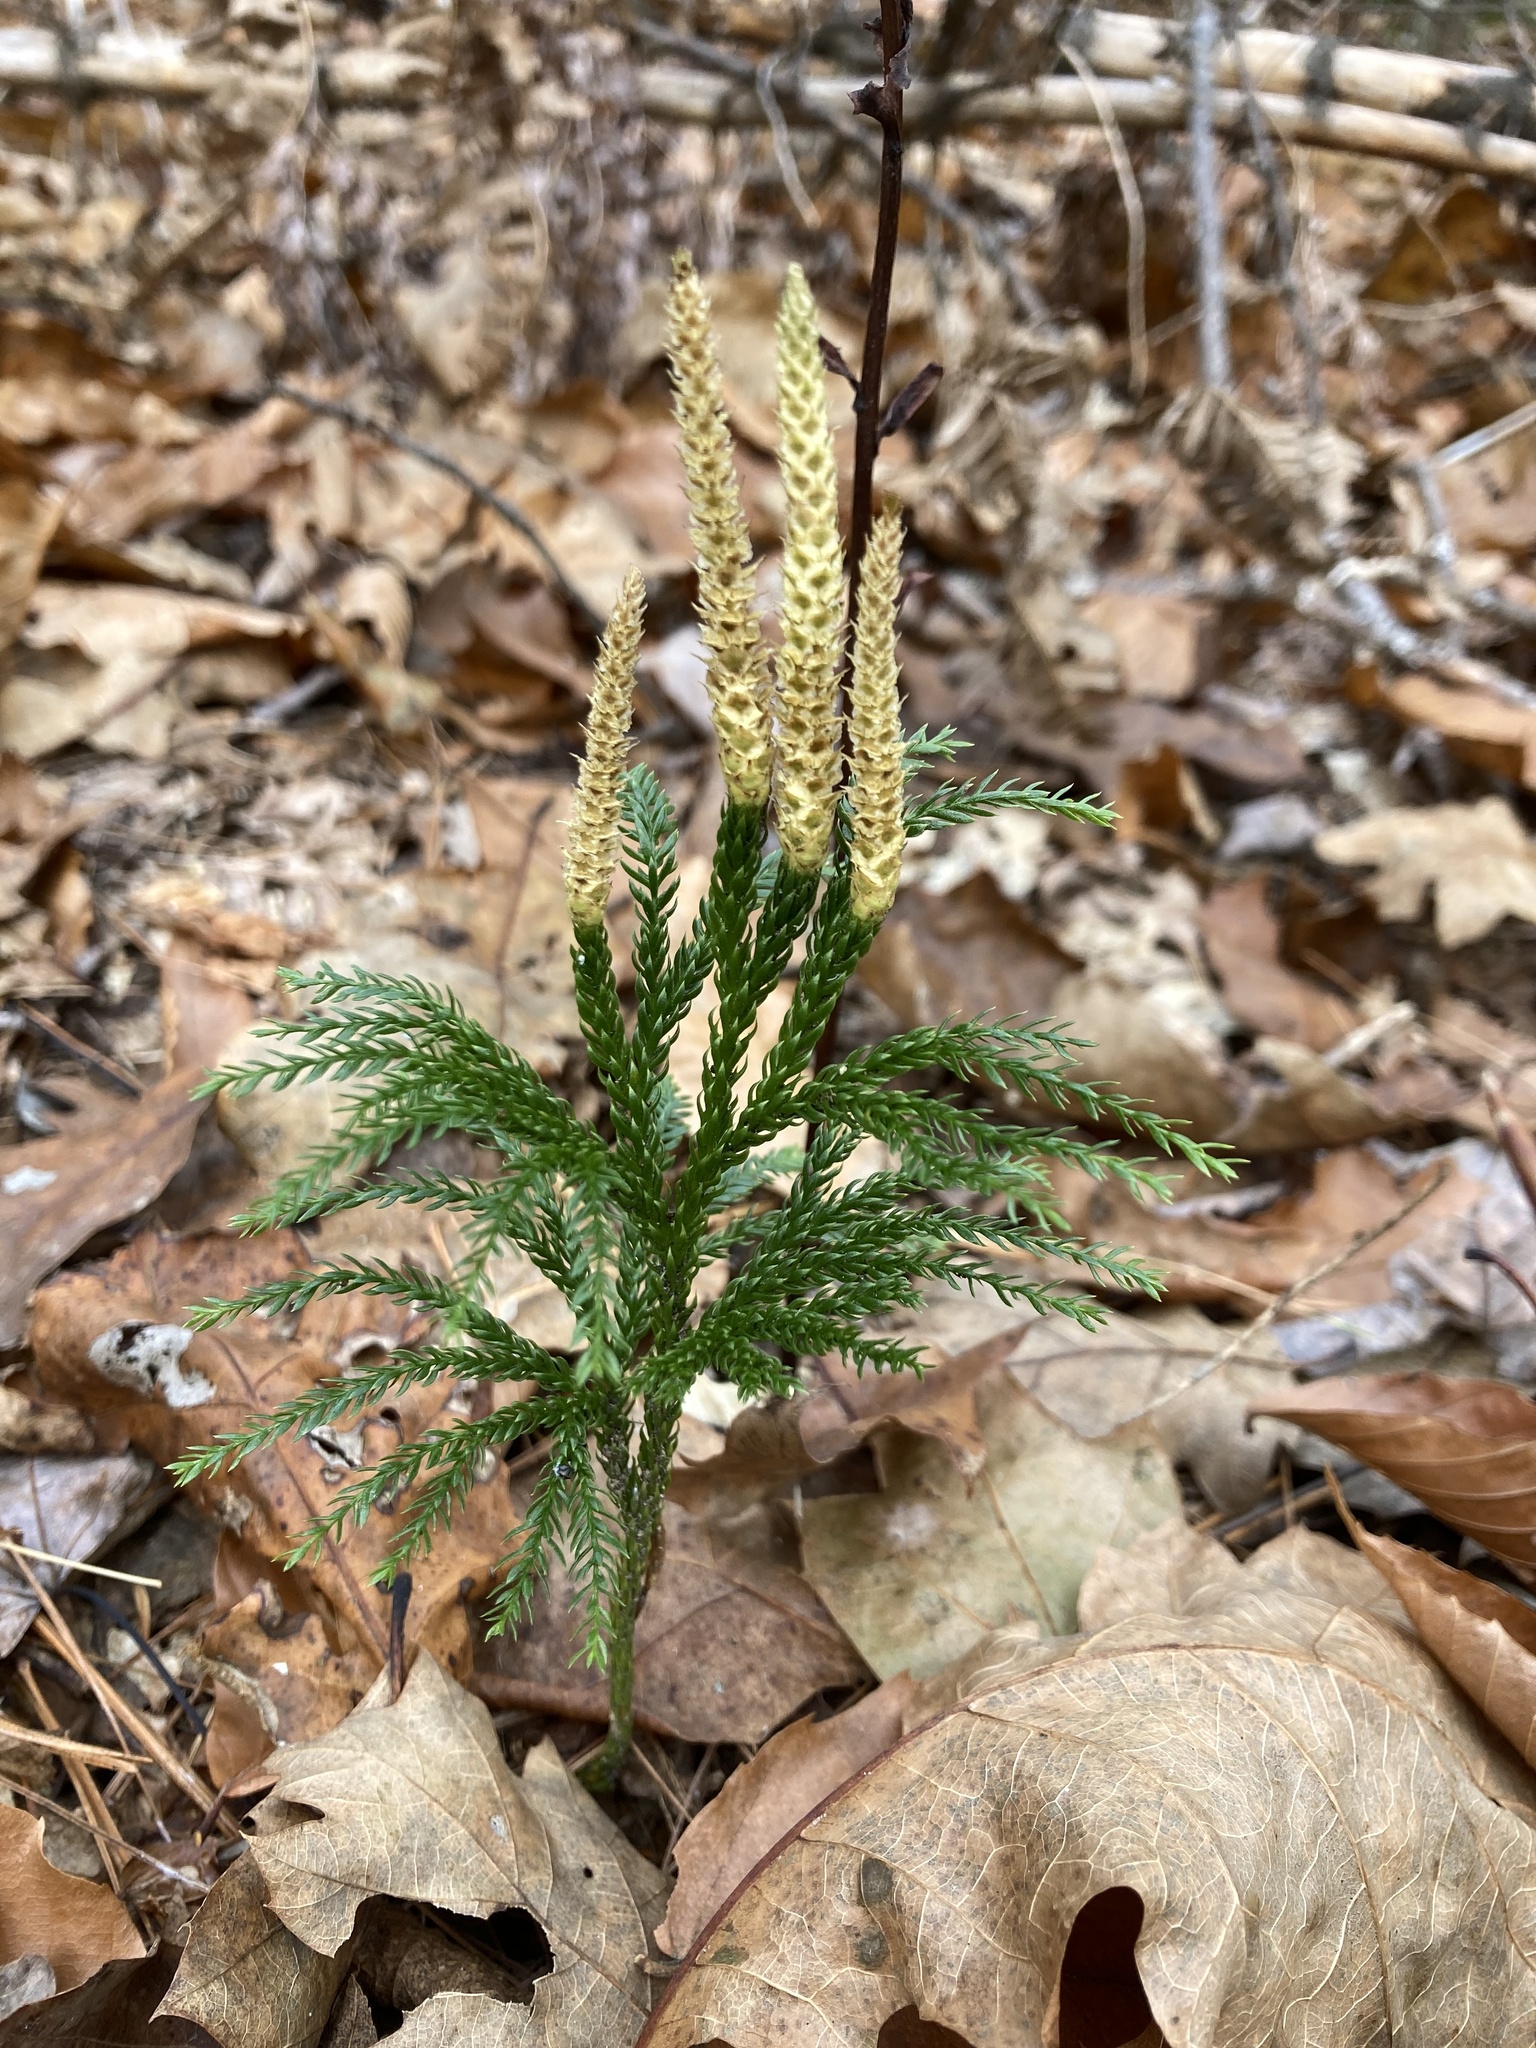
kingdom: Plantae
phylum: Tracheophyta
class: Lycopodiopsida
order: Lycopodiales
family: Lycopodiaceae
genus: Dendrolycopodium
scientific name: Dendrolycopodium obscurum
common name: Common ground-pine
